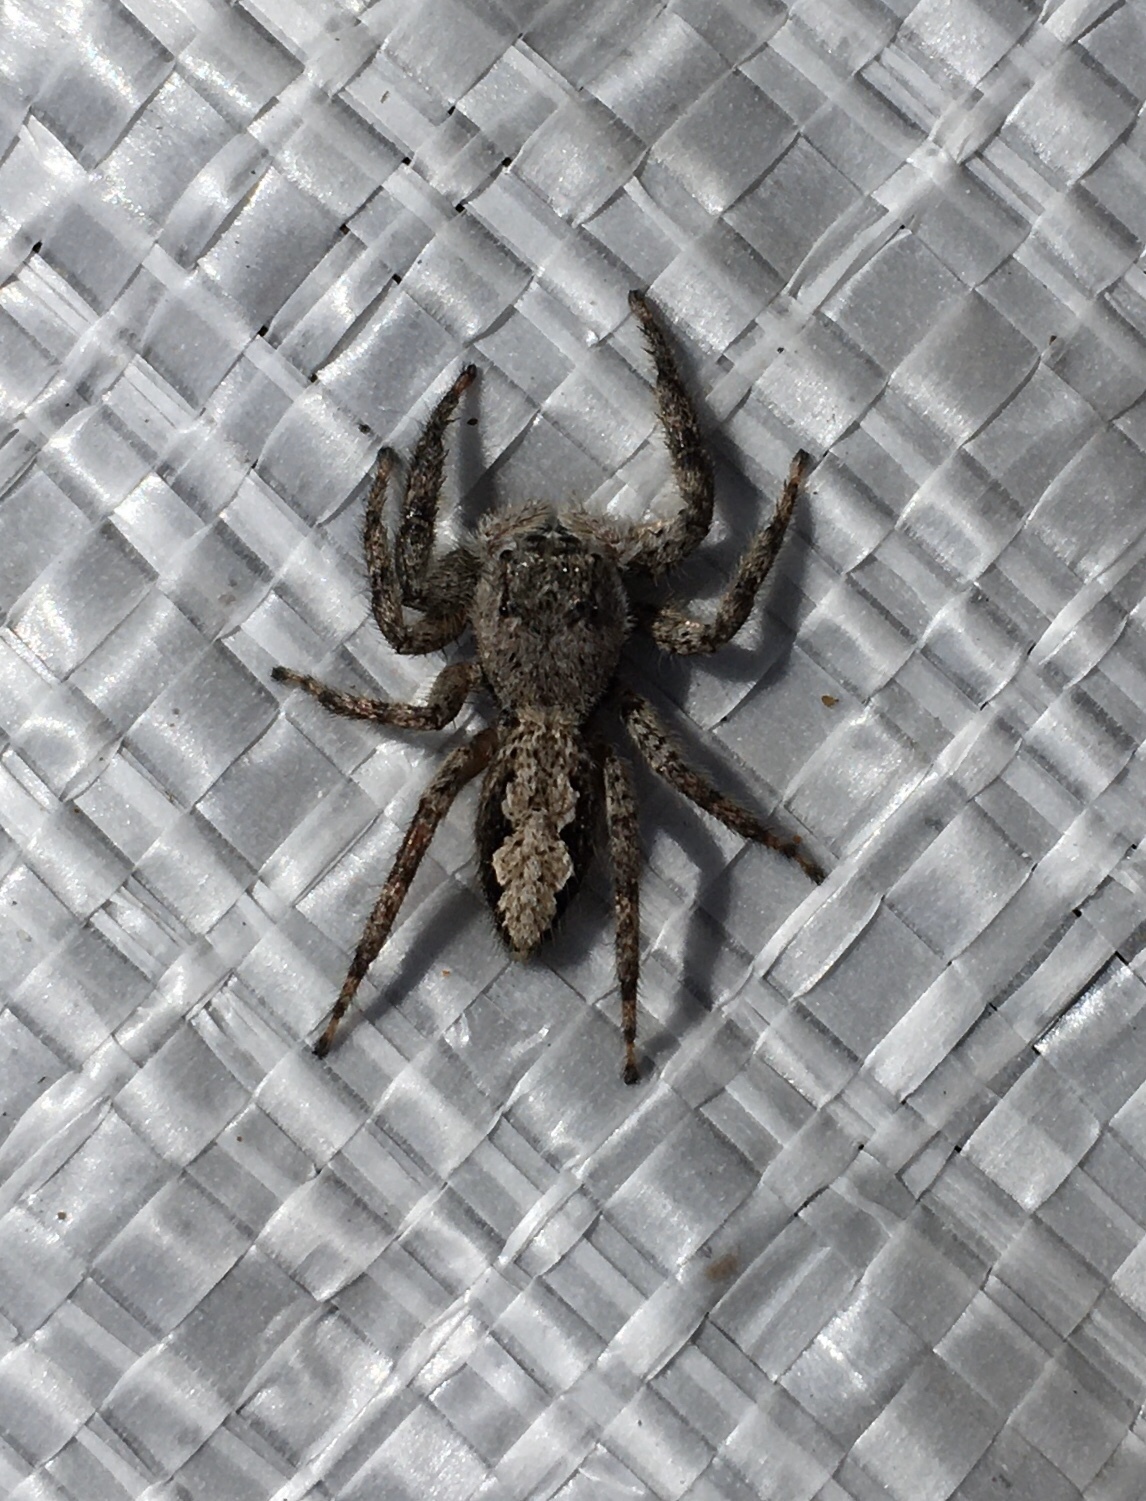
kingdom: Animalia
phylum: Arthropoda
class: Arachnida
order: Araneae
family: Salticidae
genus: Platycryptus
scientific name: Platycryptus undatus
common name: Tan jumping spider
